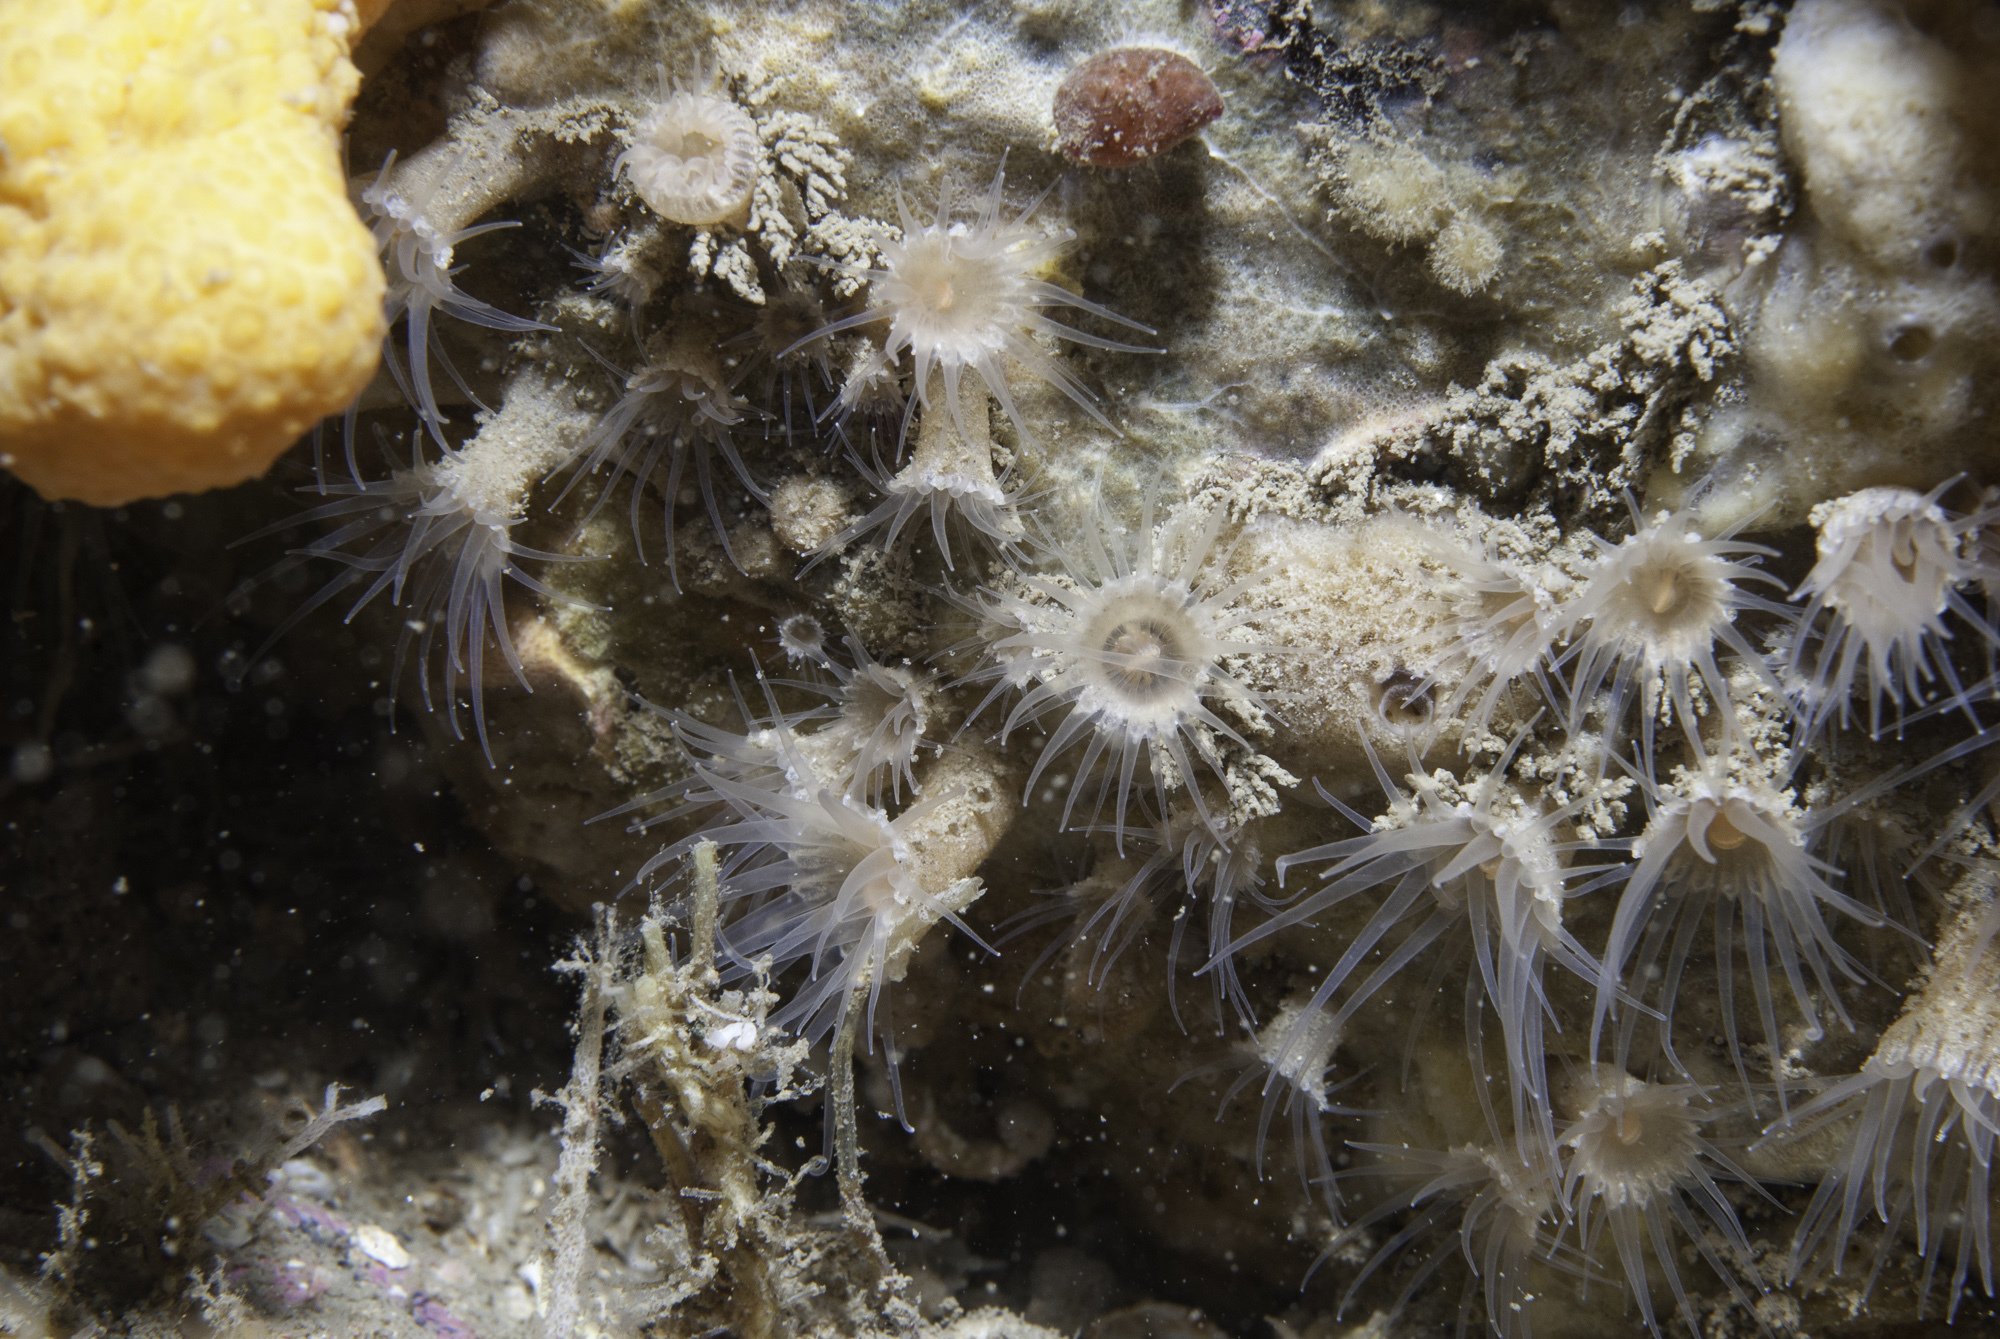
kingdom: Animalia
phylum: Cnidaria
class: Anthozoa
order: Zoantharia
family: Epizoanthidae
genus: Epizoanthus
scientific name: Epizoanthus couchii
